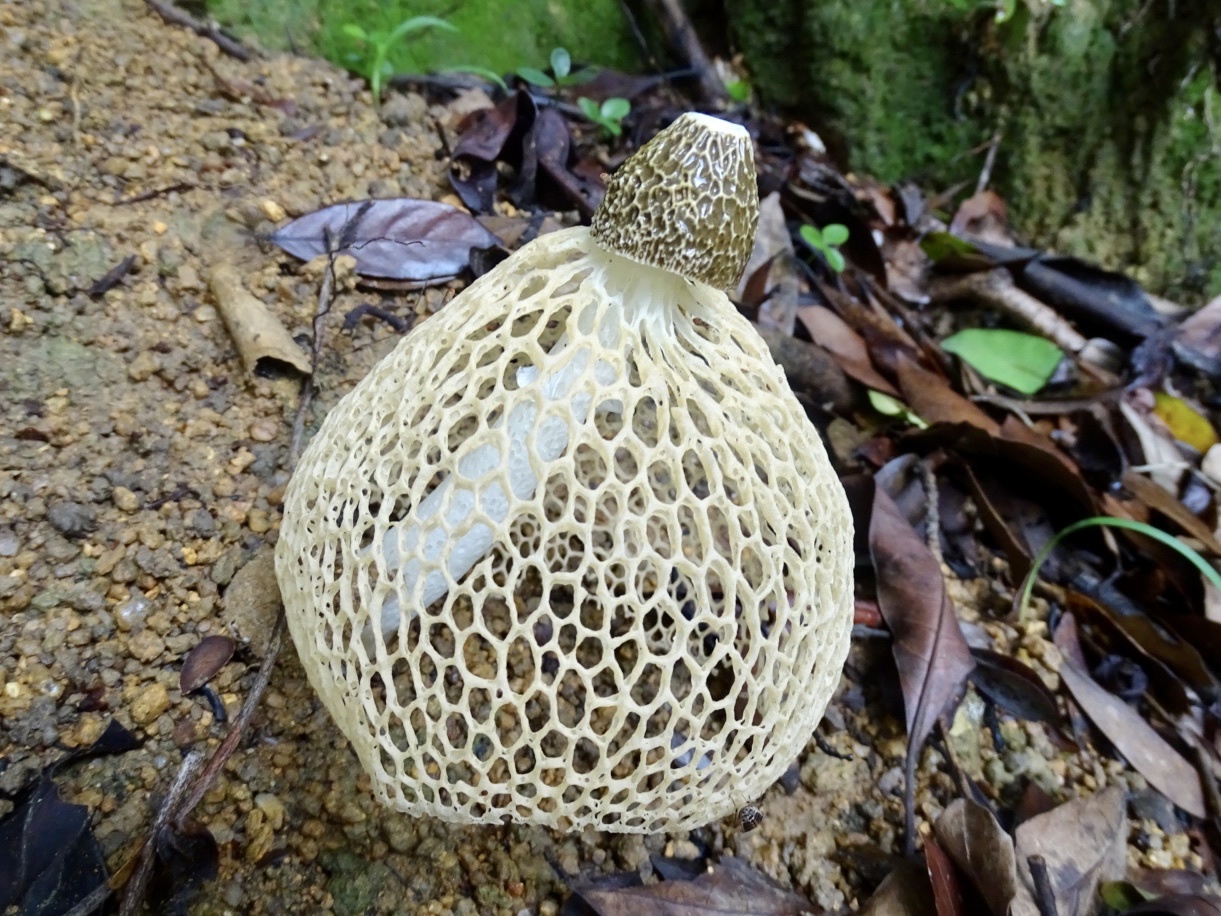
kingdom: Fungi
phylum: Basidiomycota
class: Agaricomycetes
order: Phallales
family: Phallaceae
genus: Phallus
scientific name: Phallus lutescens
